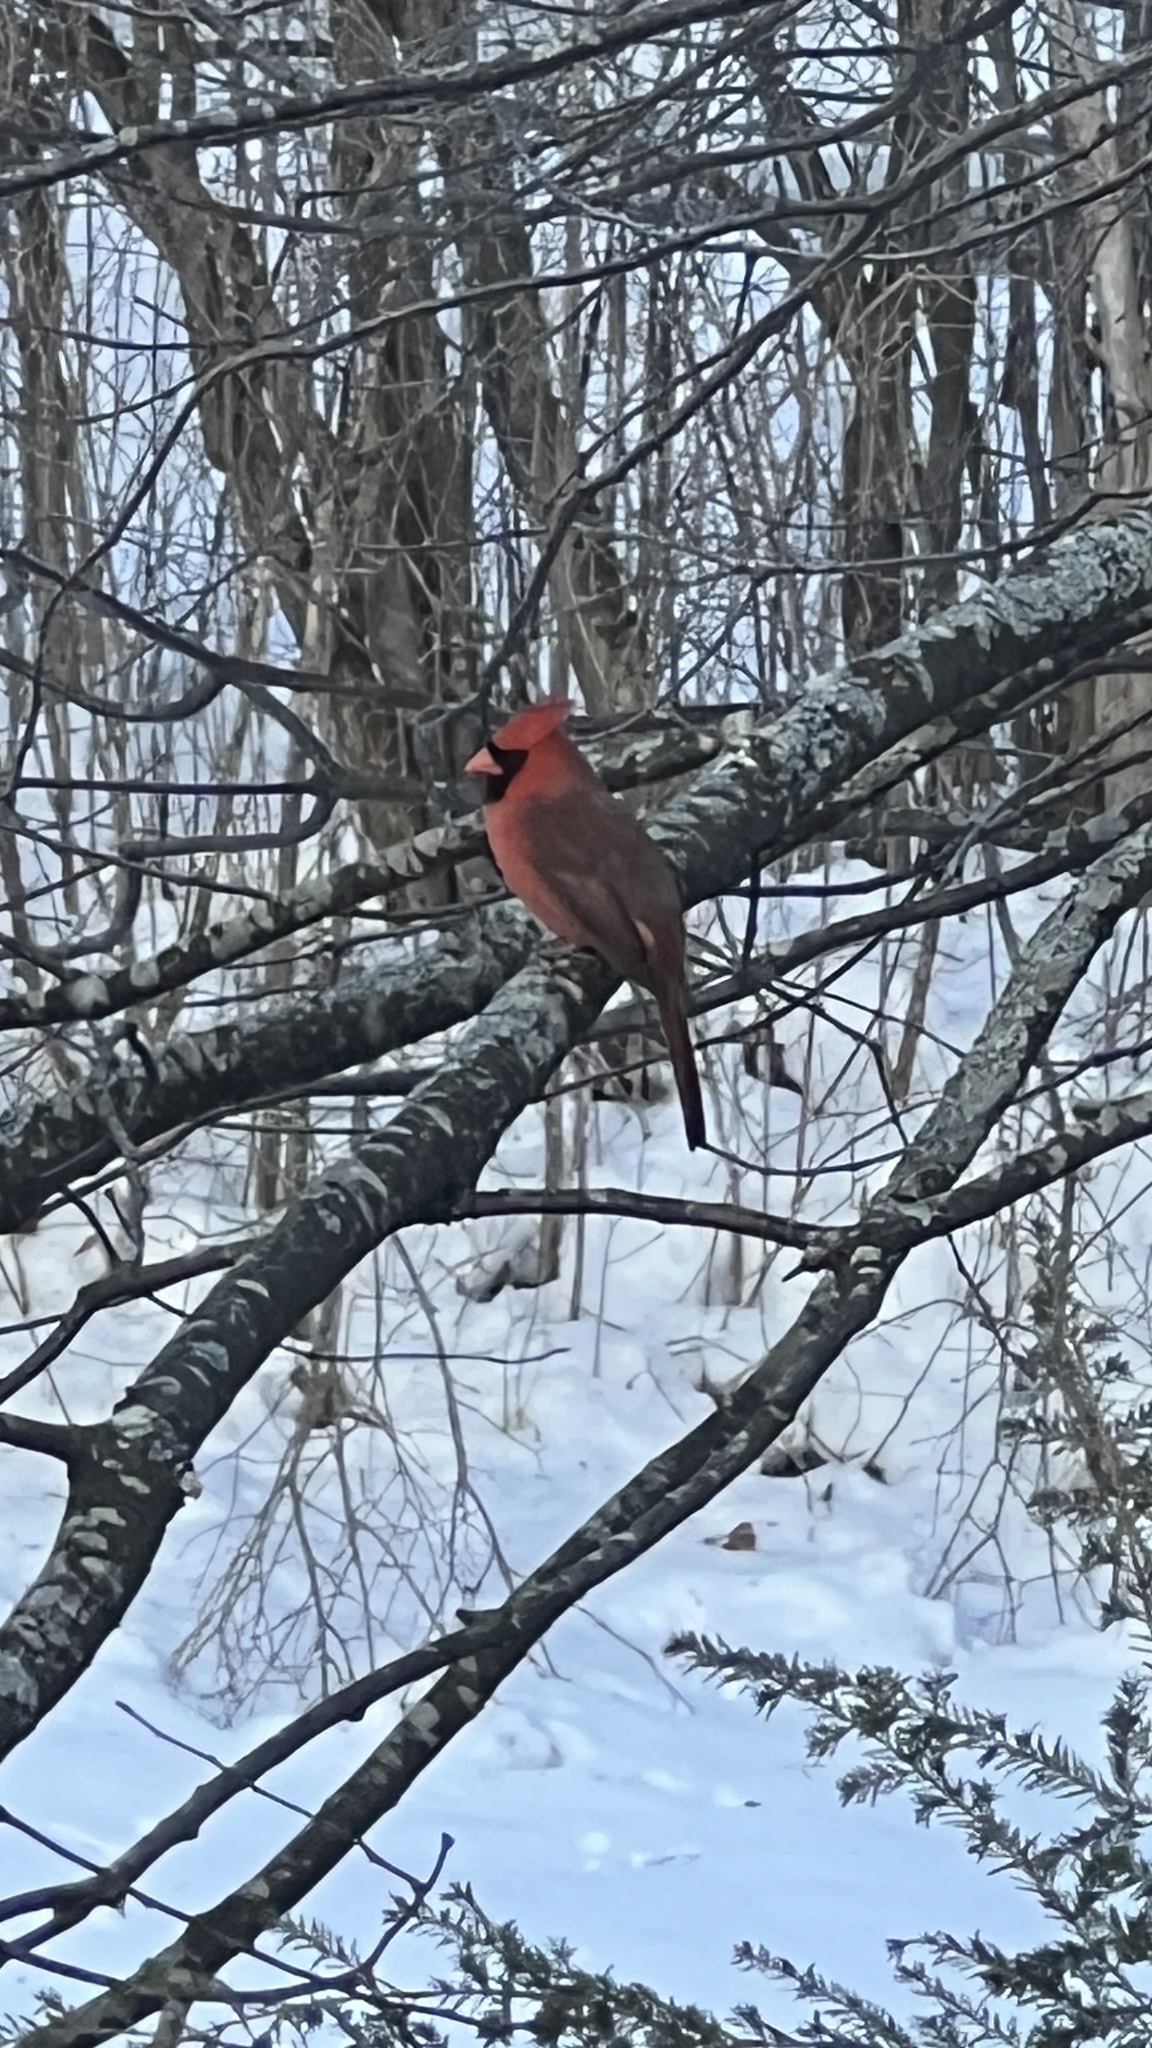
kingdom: Animalia
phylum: Chordata
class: Aves
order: Passeriformes
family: Cardinalidae
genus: Cardinalis
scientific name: Cardinalis cardinalis
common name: Northern cardinal
